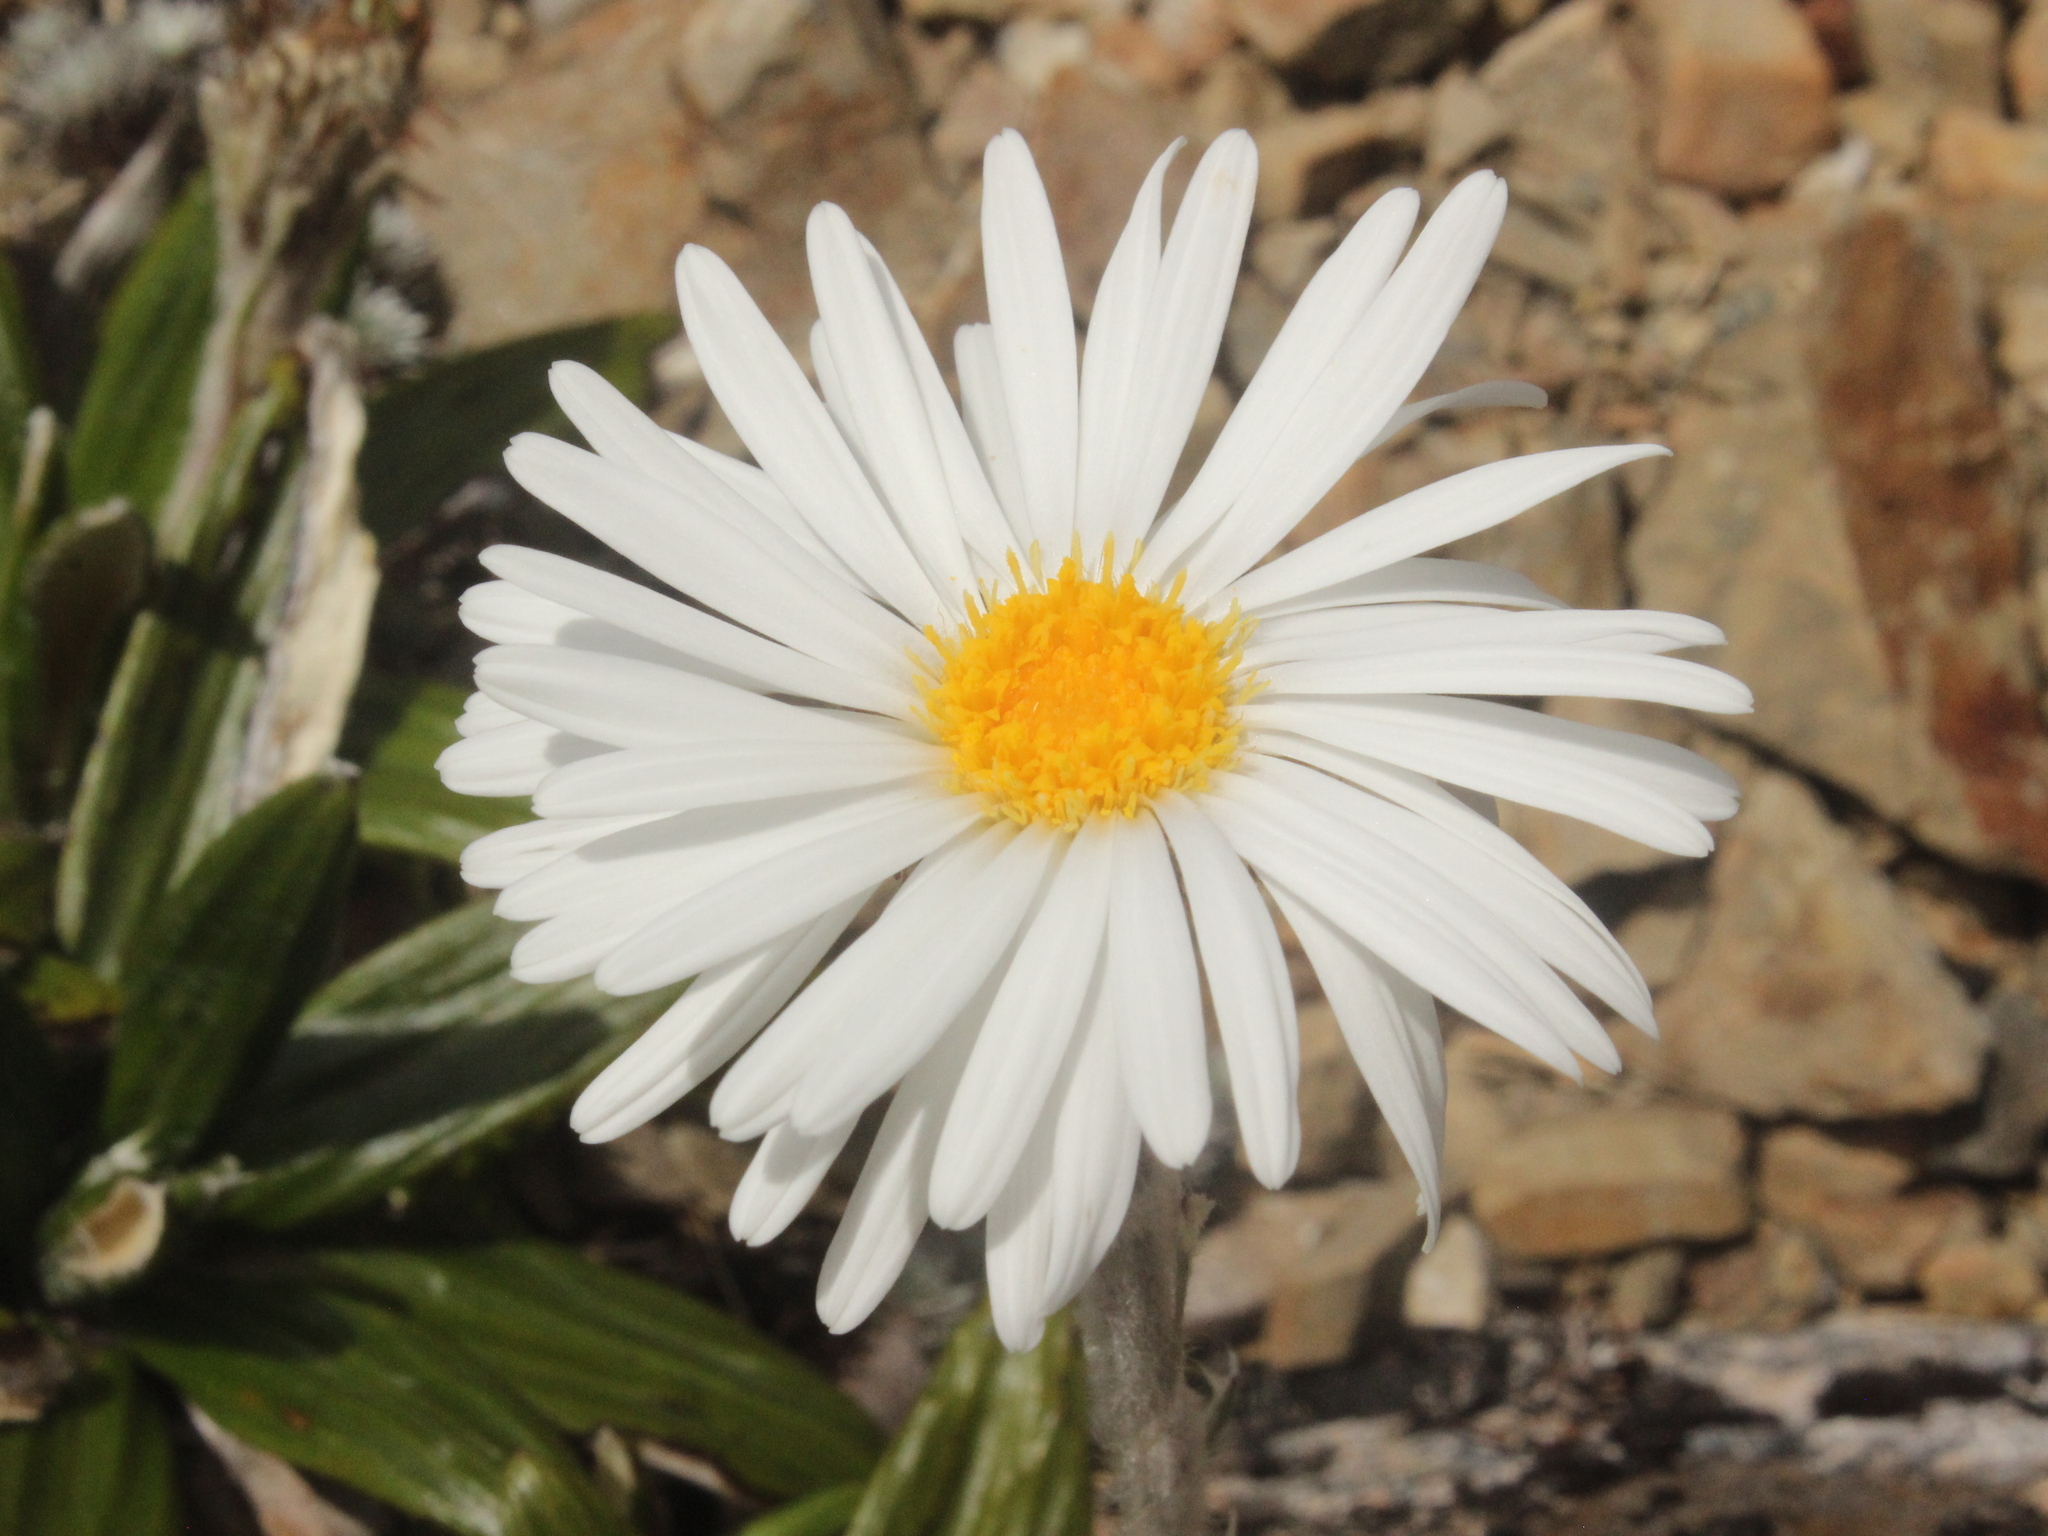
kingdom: Plantae
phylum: Tracheophyta
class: Magnoliopsida
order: Asterales
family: Asteraceae
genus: Celmisia
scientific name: Celmisia spectabilis
